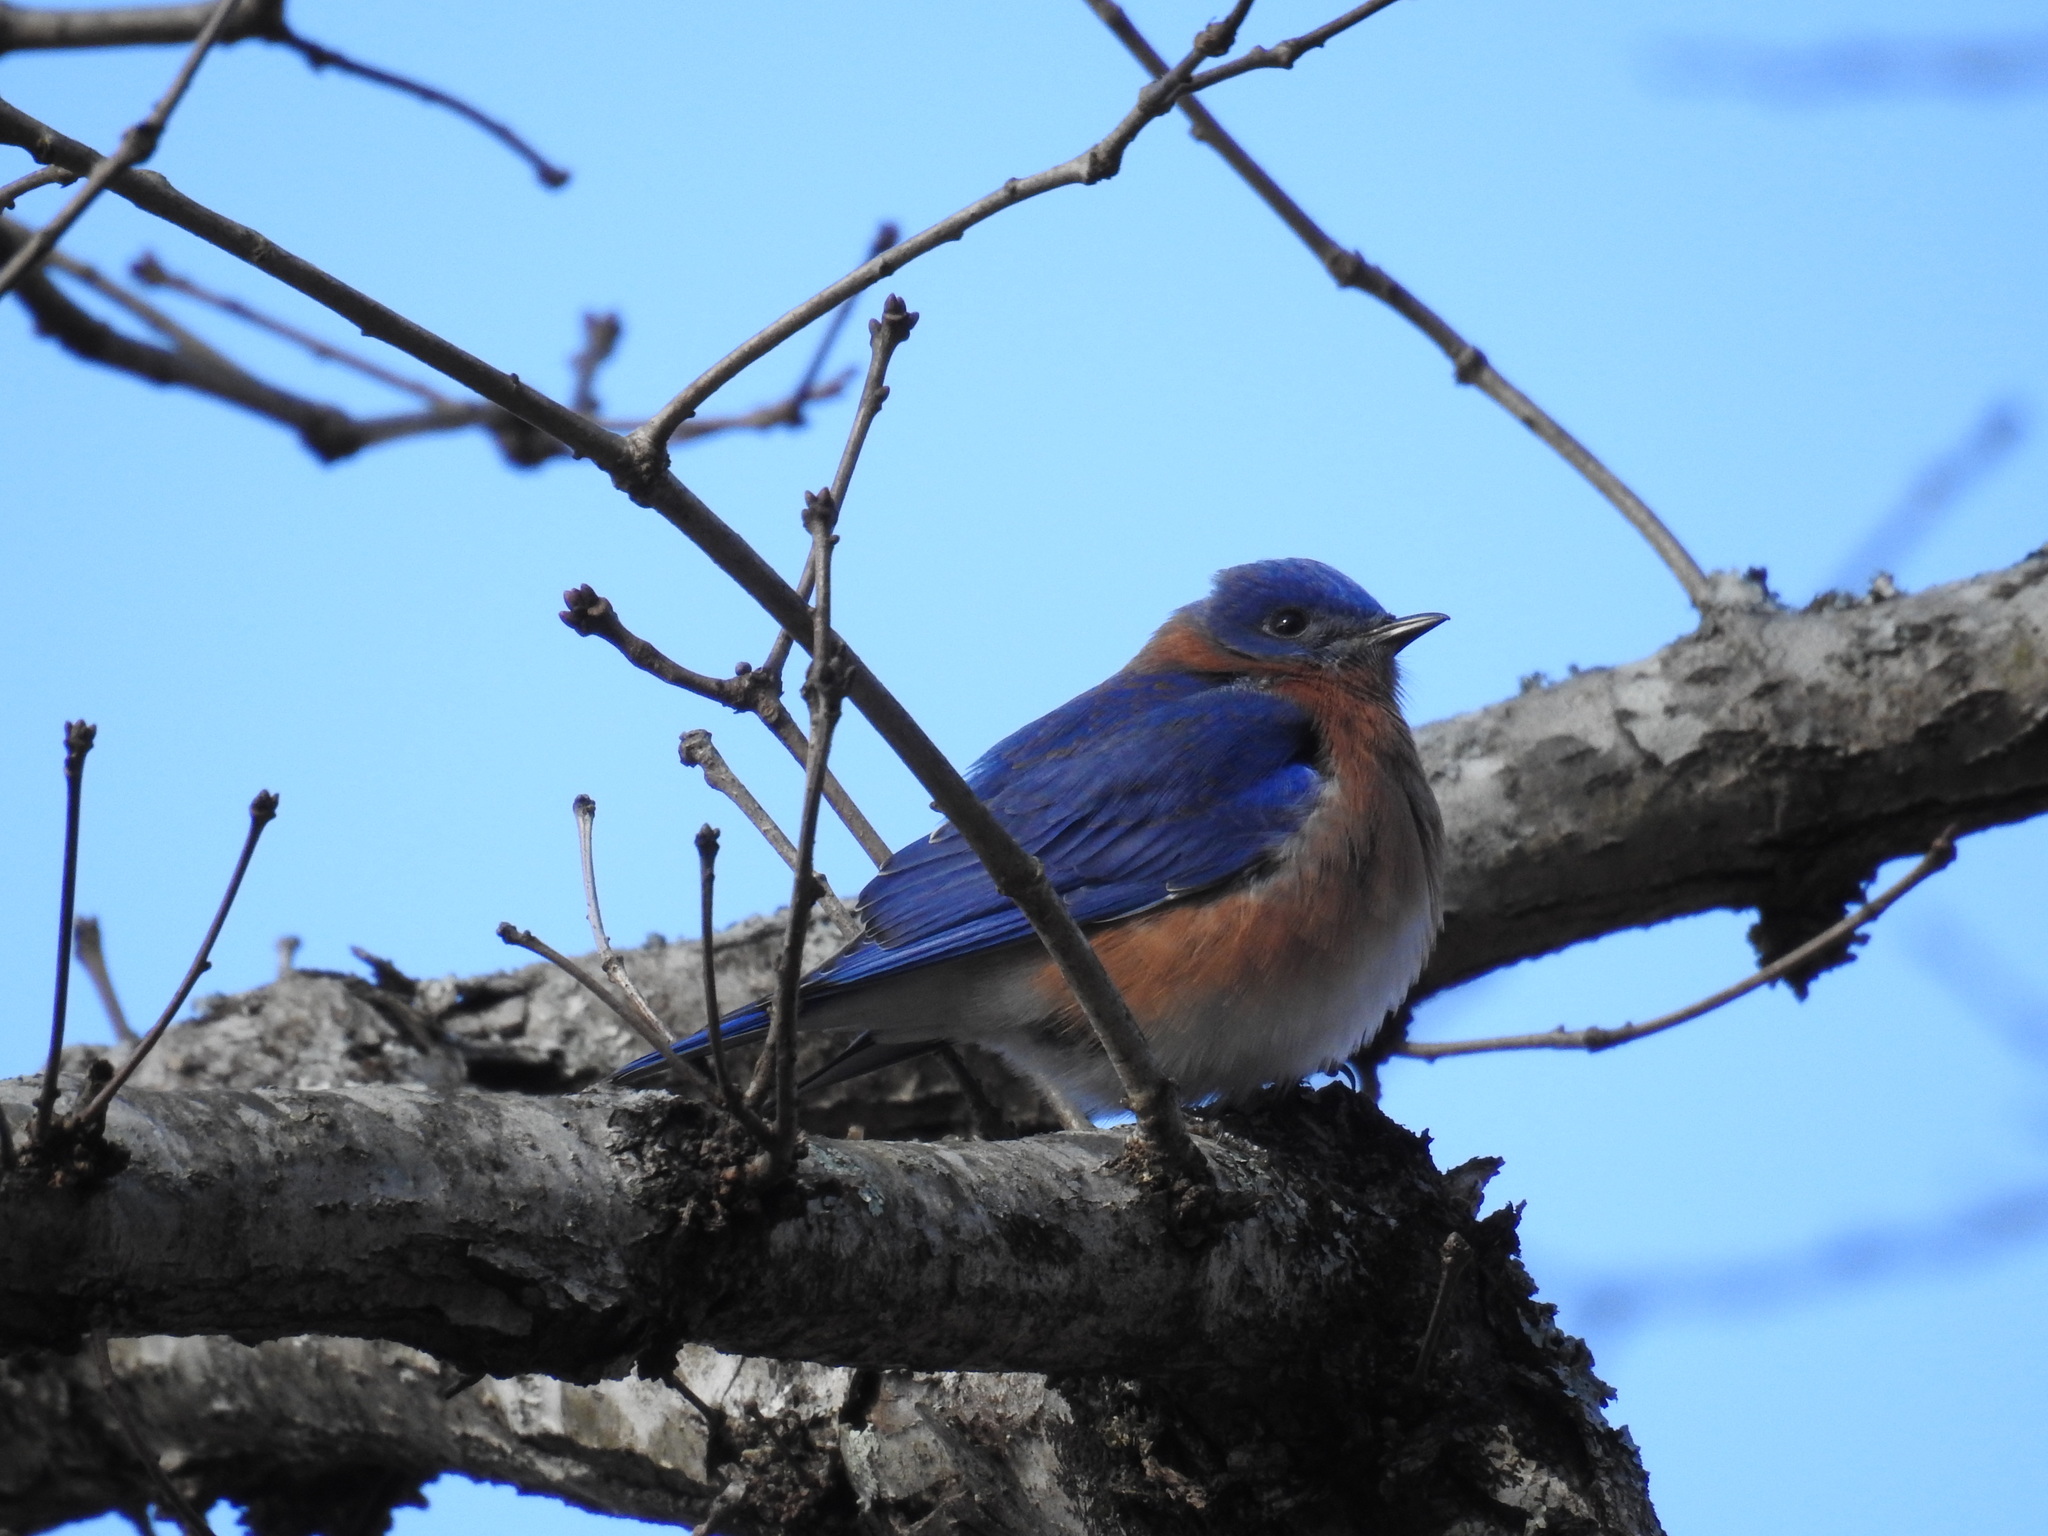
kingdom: Animalia
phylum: Chordata
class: Aves
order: Passeriformes
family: Turdidae
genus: Sialia
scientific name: Sialia sialis
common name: Eastern bluebird
